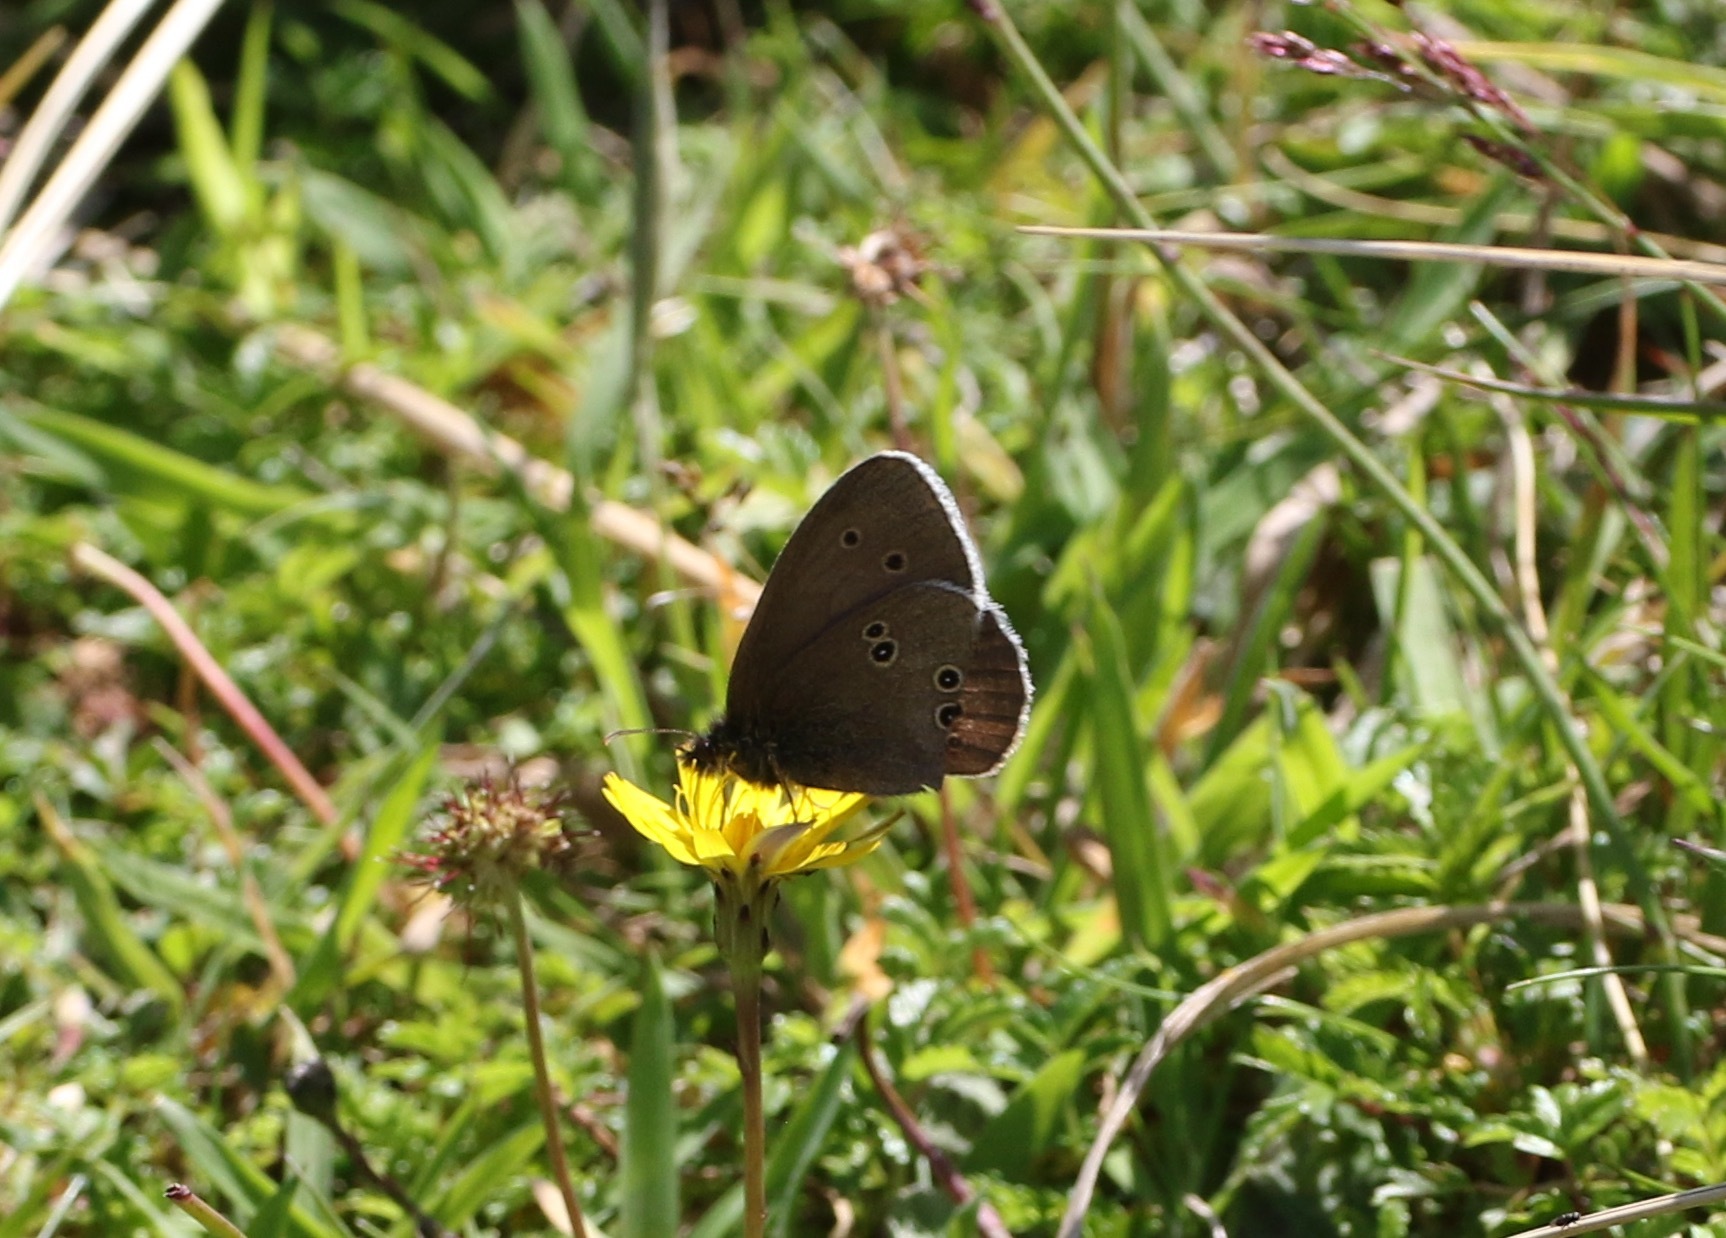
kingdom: Animalia
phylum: Arthropoda
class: Insecta
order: Lepidoptera
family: Nymphalidae
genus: Aphantopus
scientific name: Aphantopus hyperantus
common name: Ringlet
